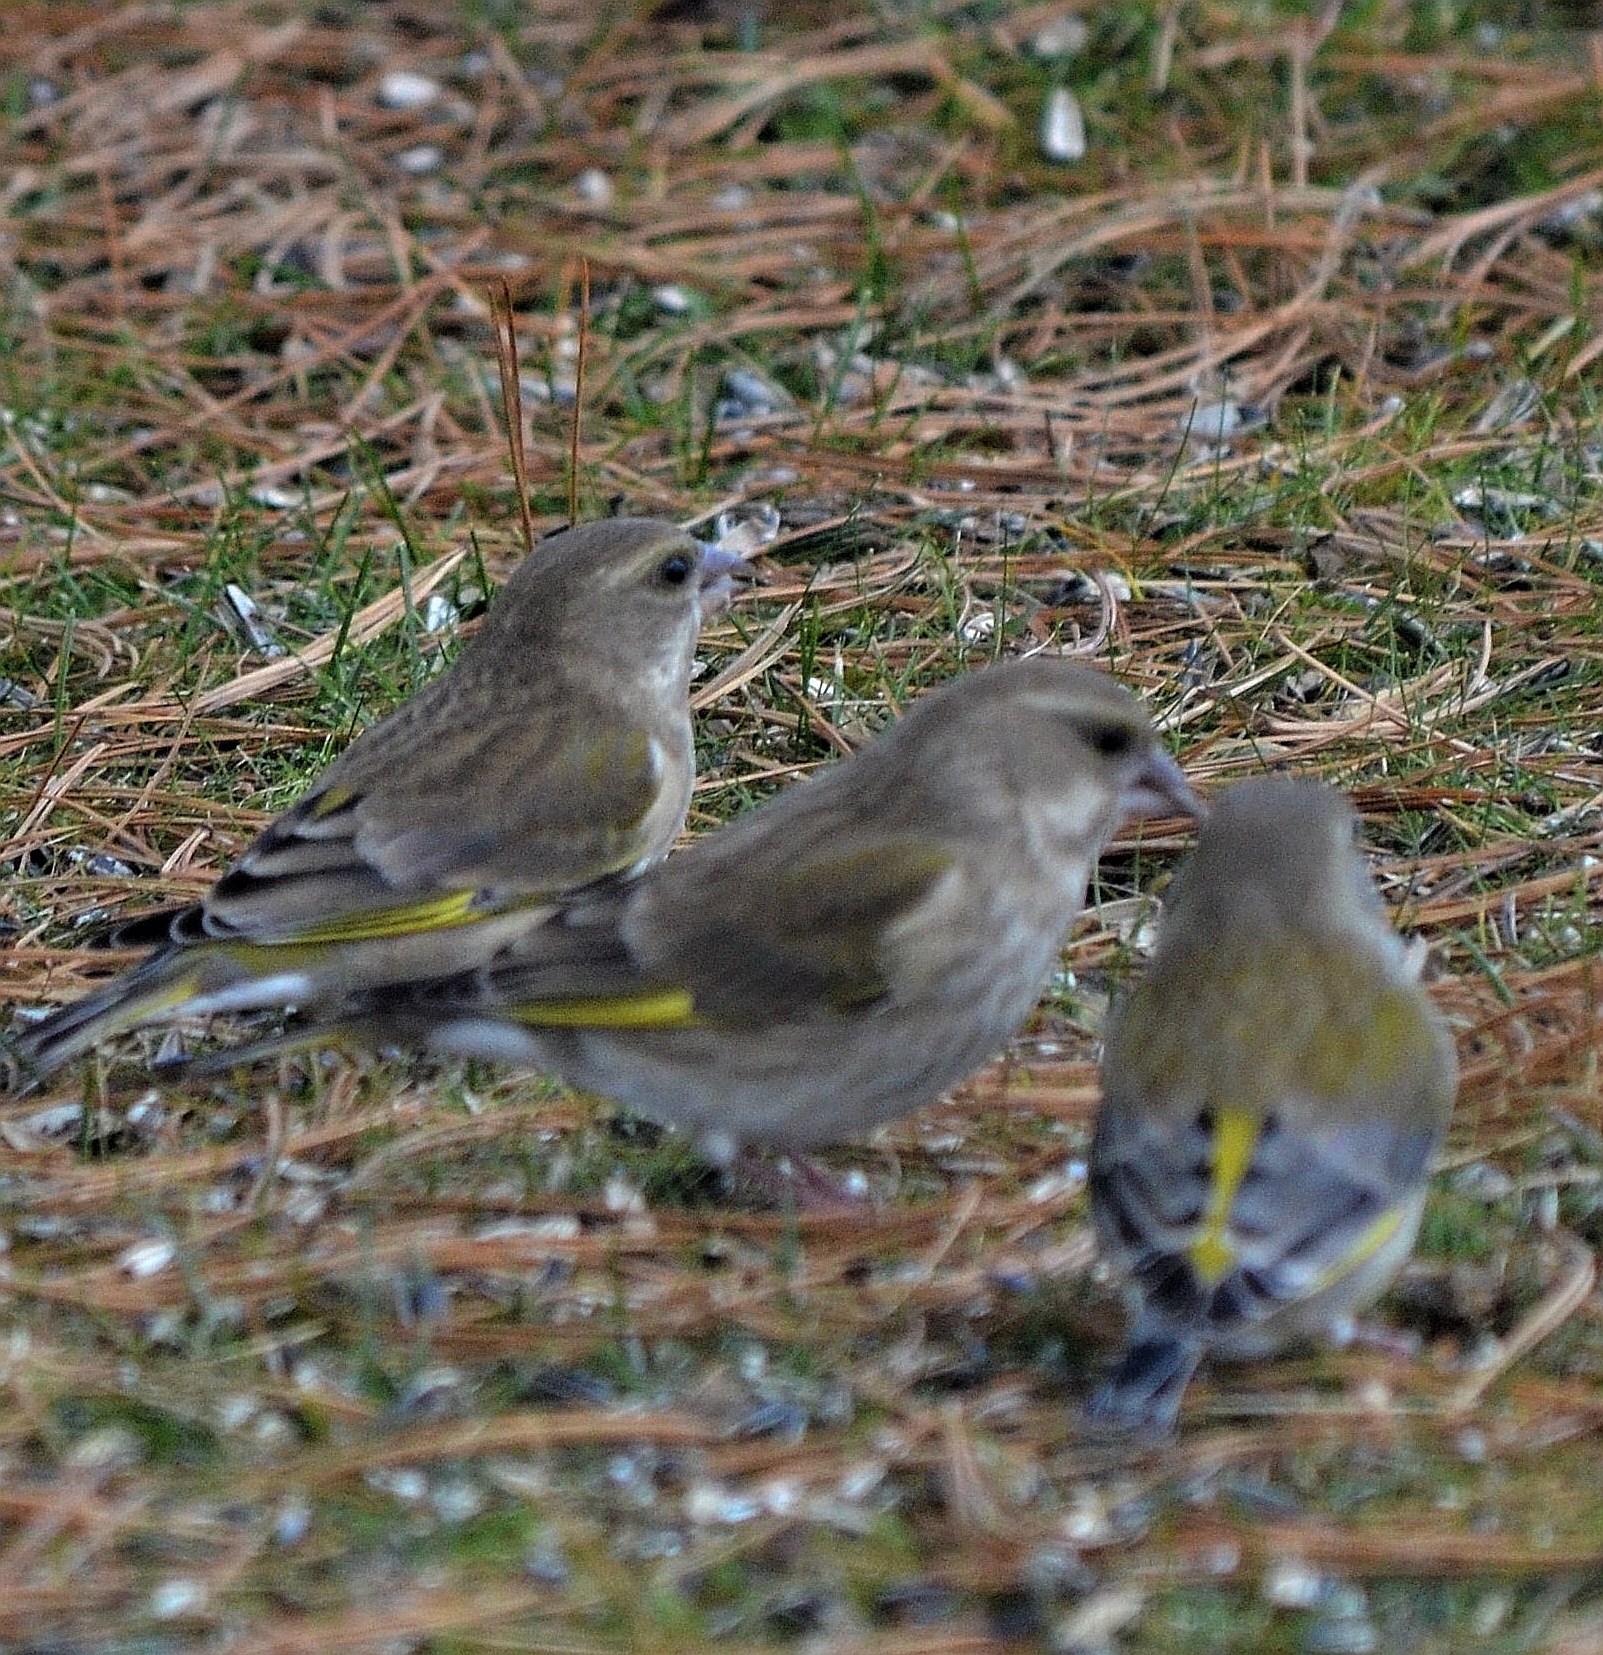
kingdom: Plantae
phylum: Tracheophyta
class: Liliopsida
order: Poales
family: Poaceae
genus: Chloris
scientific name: Chloris chloris
